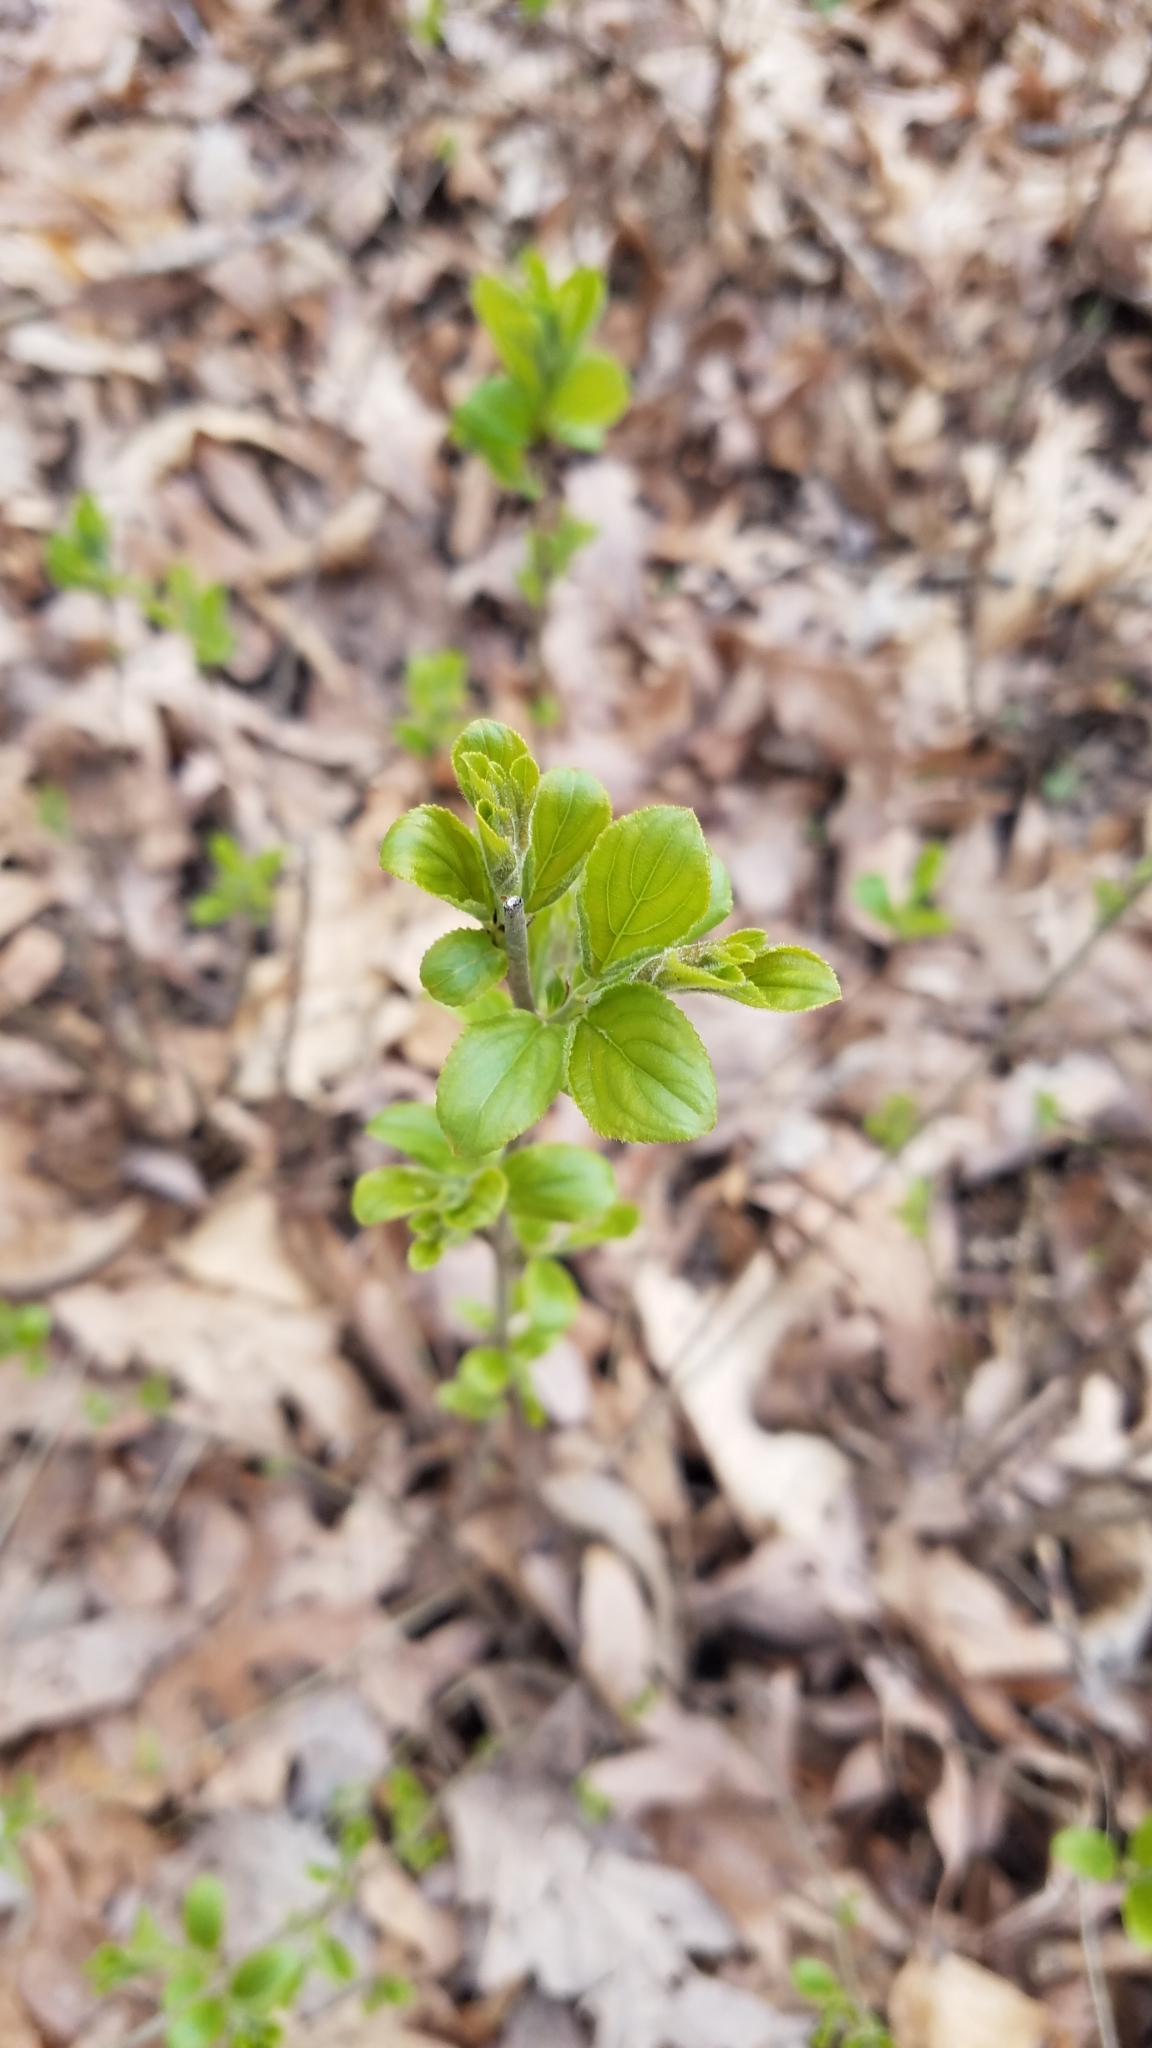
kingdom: Plantae
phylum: Tracheophyta
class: Magnoliopsida
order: Rosales
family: Rhamnaceae
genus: Rhamnus
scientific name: Rhamnus cathartica
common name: Common buckthorn
